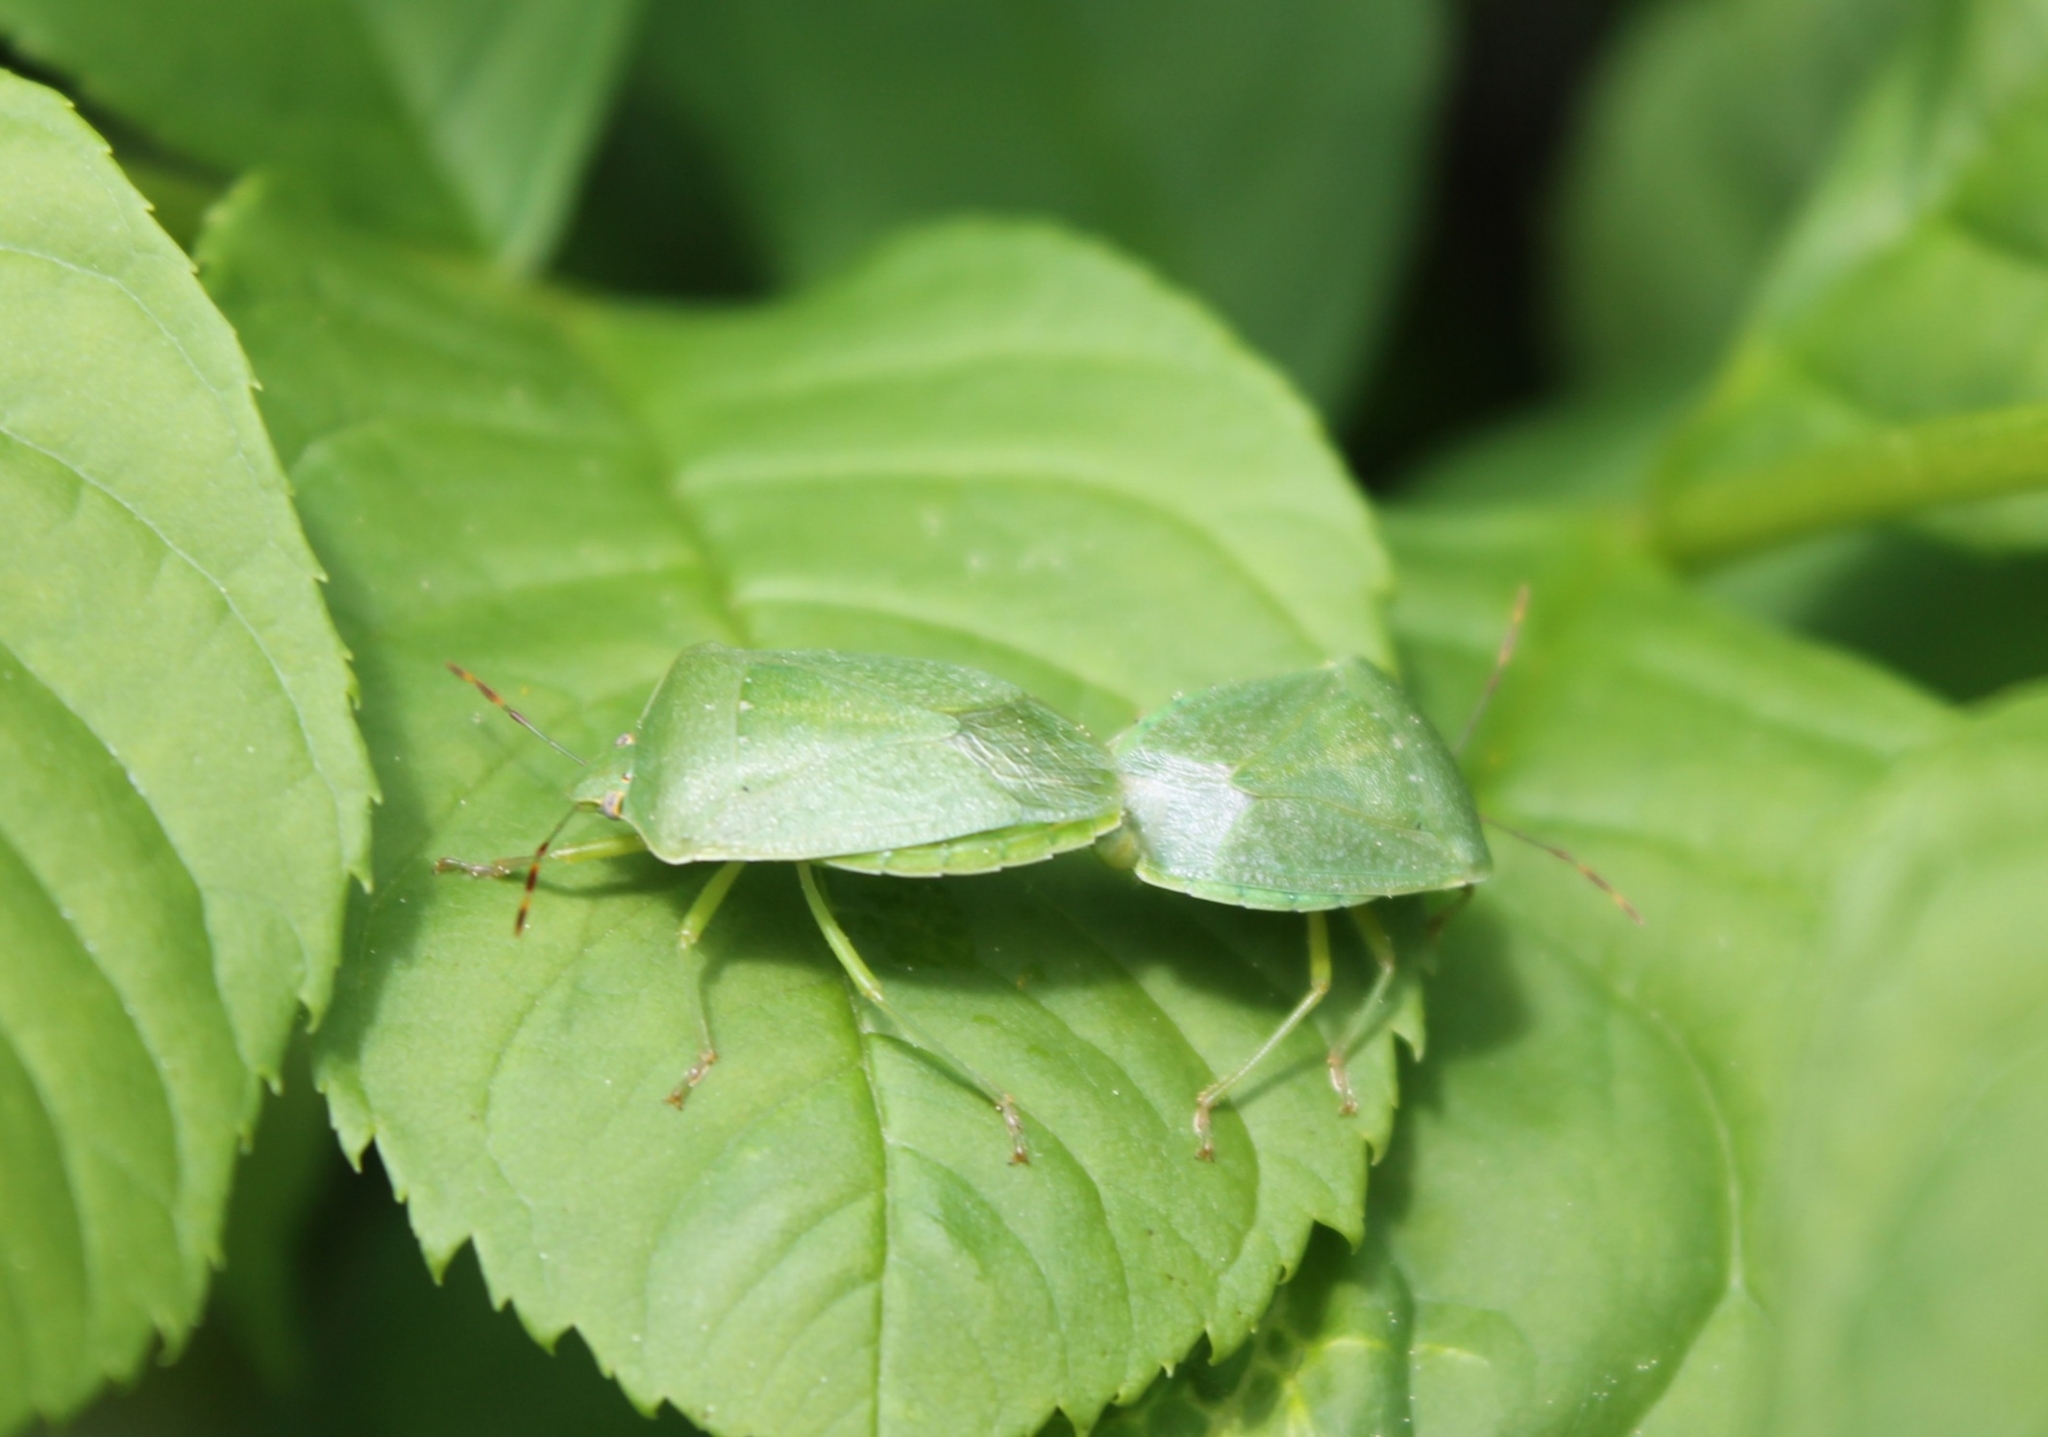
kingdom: Animalia
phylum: Arthropoda
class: Insecta
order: Hemiptera
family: Pentatomidae
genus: Nezara
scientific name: Nezara viridula
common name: Southern green stink bug
